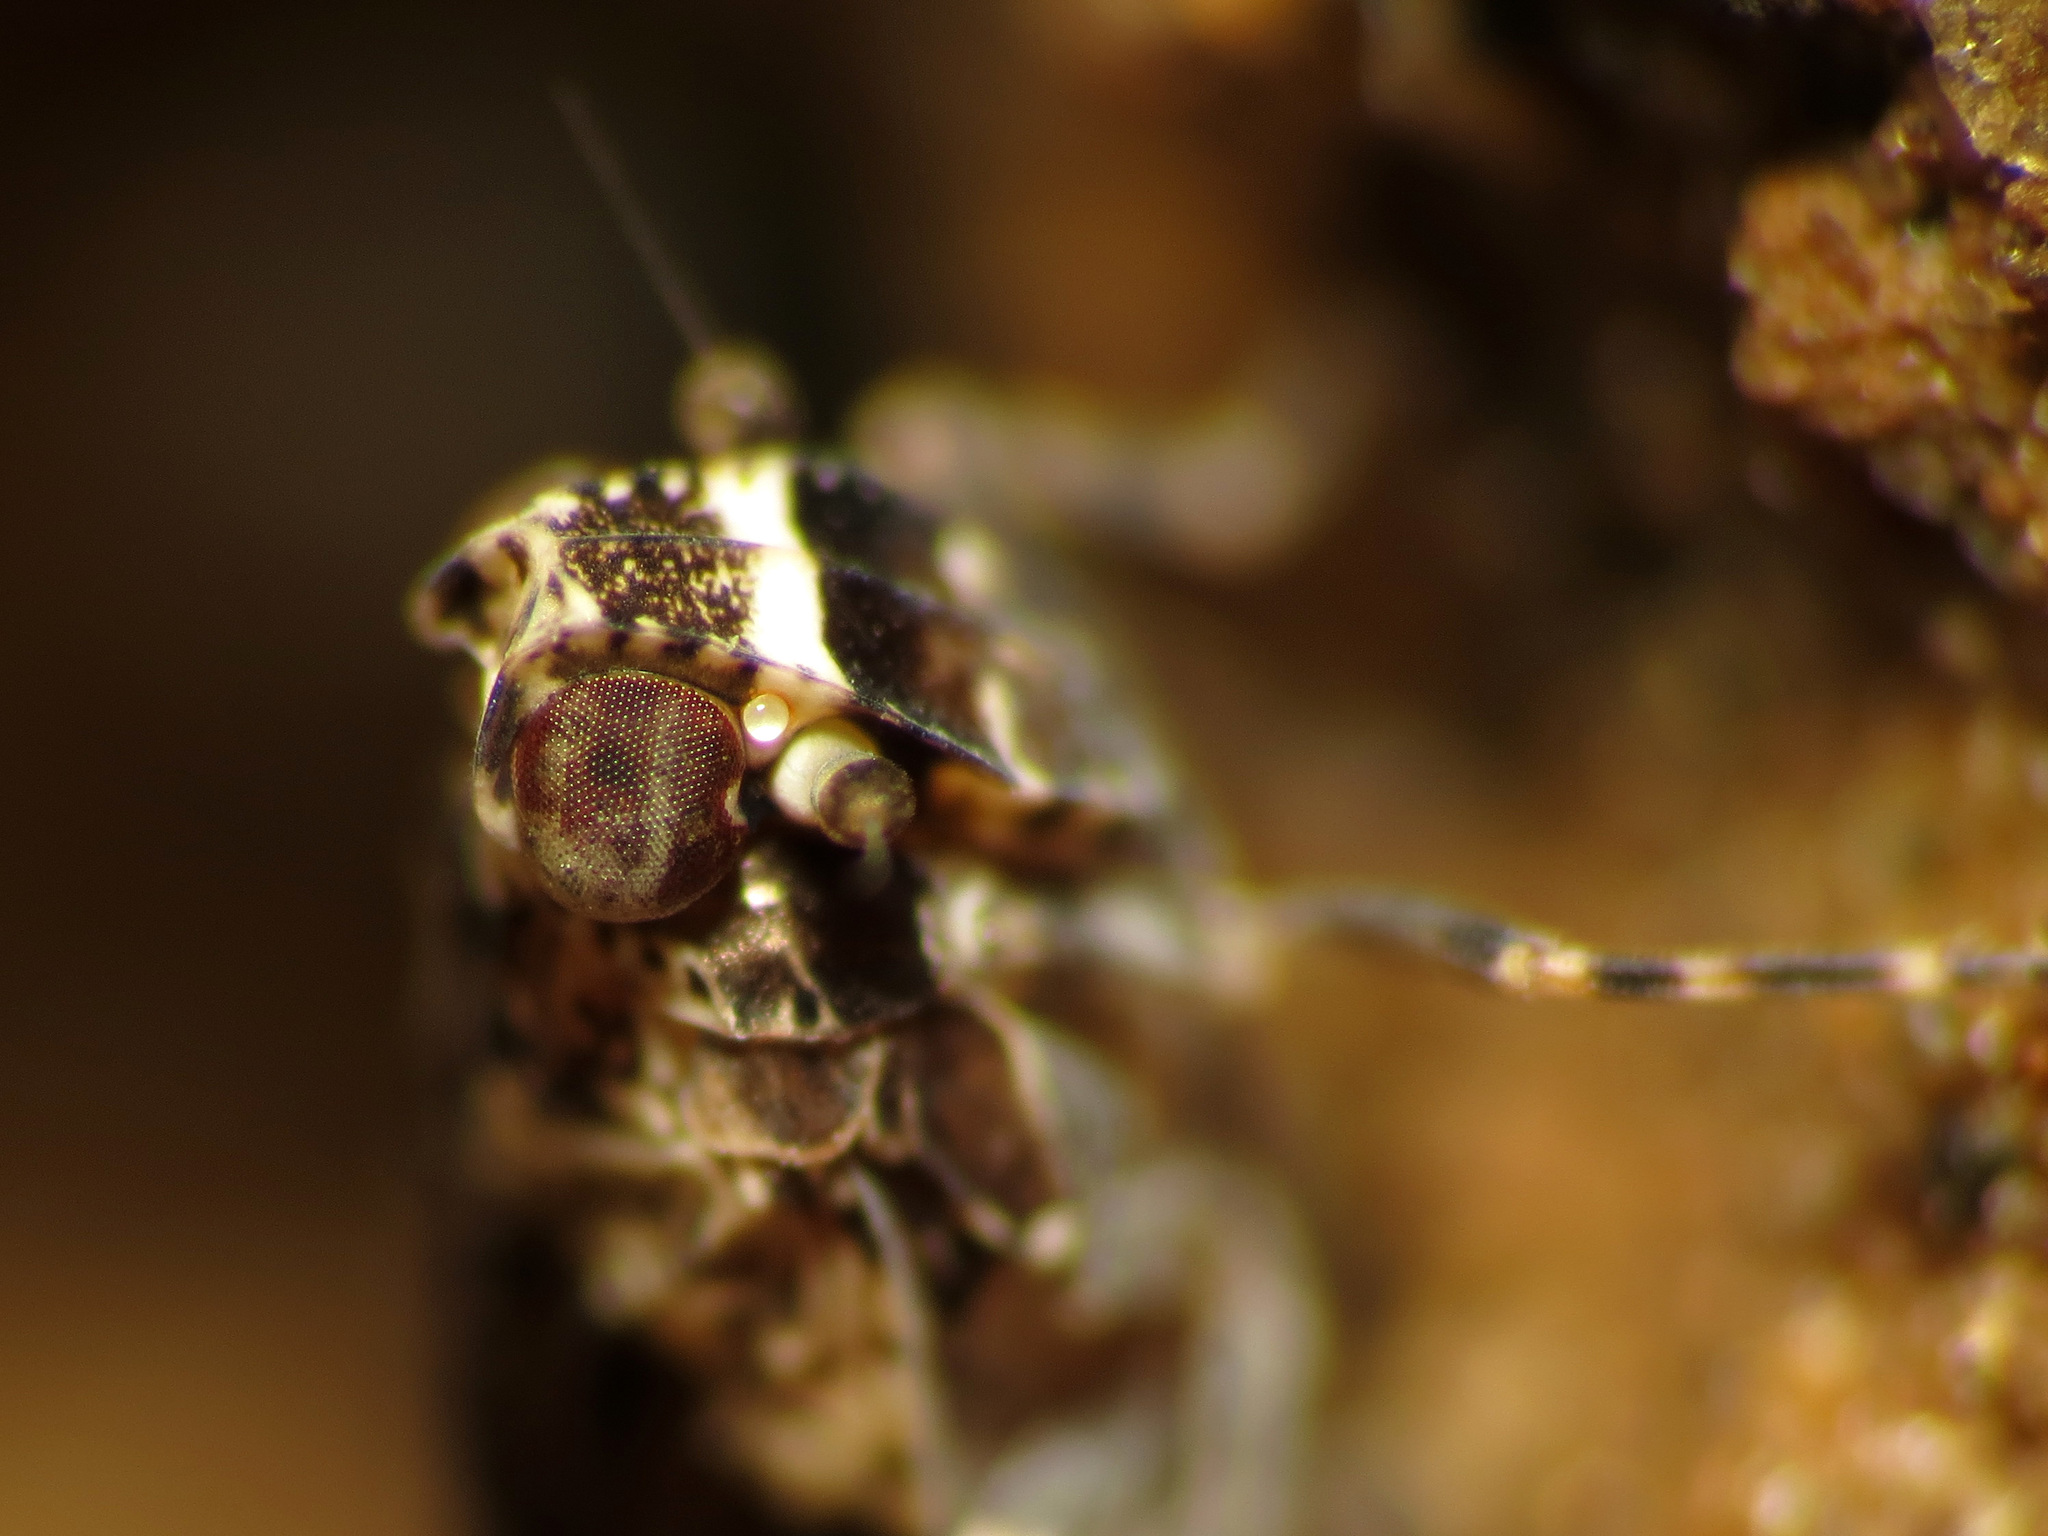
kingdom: Animalia
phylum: Arthropoda
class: Insecta
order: Hemiptera
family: Achilidae
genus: Catonia
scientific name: Catonia nava
